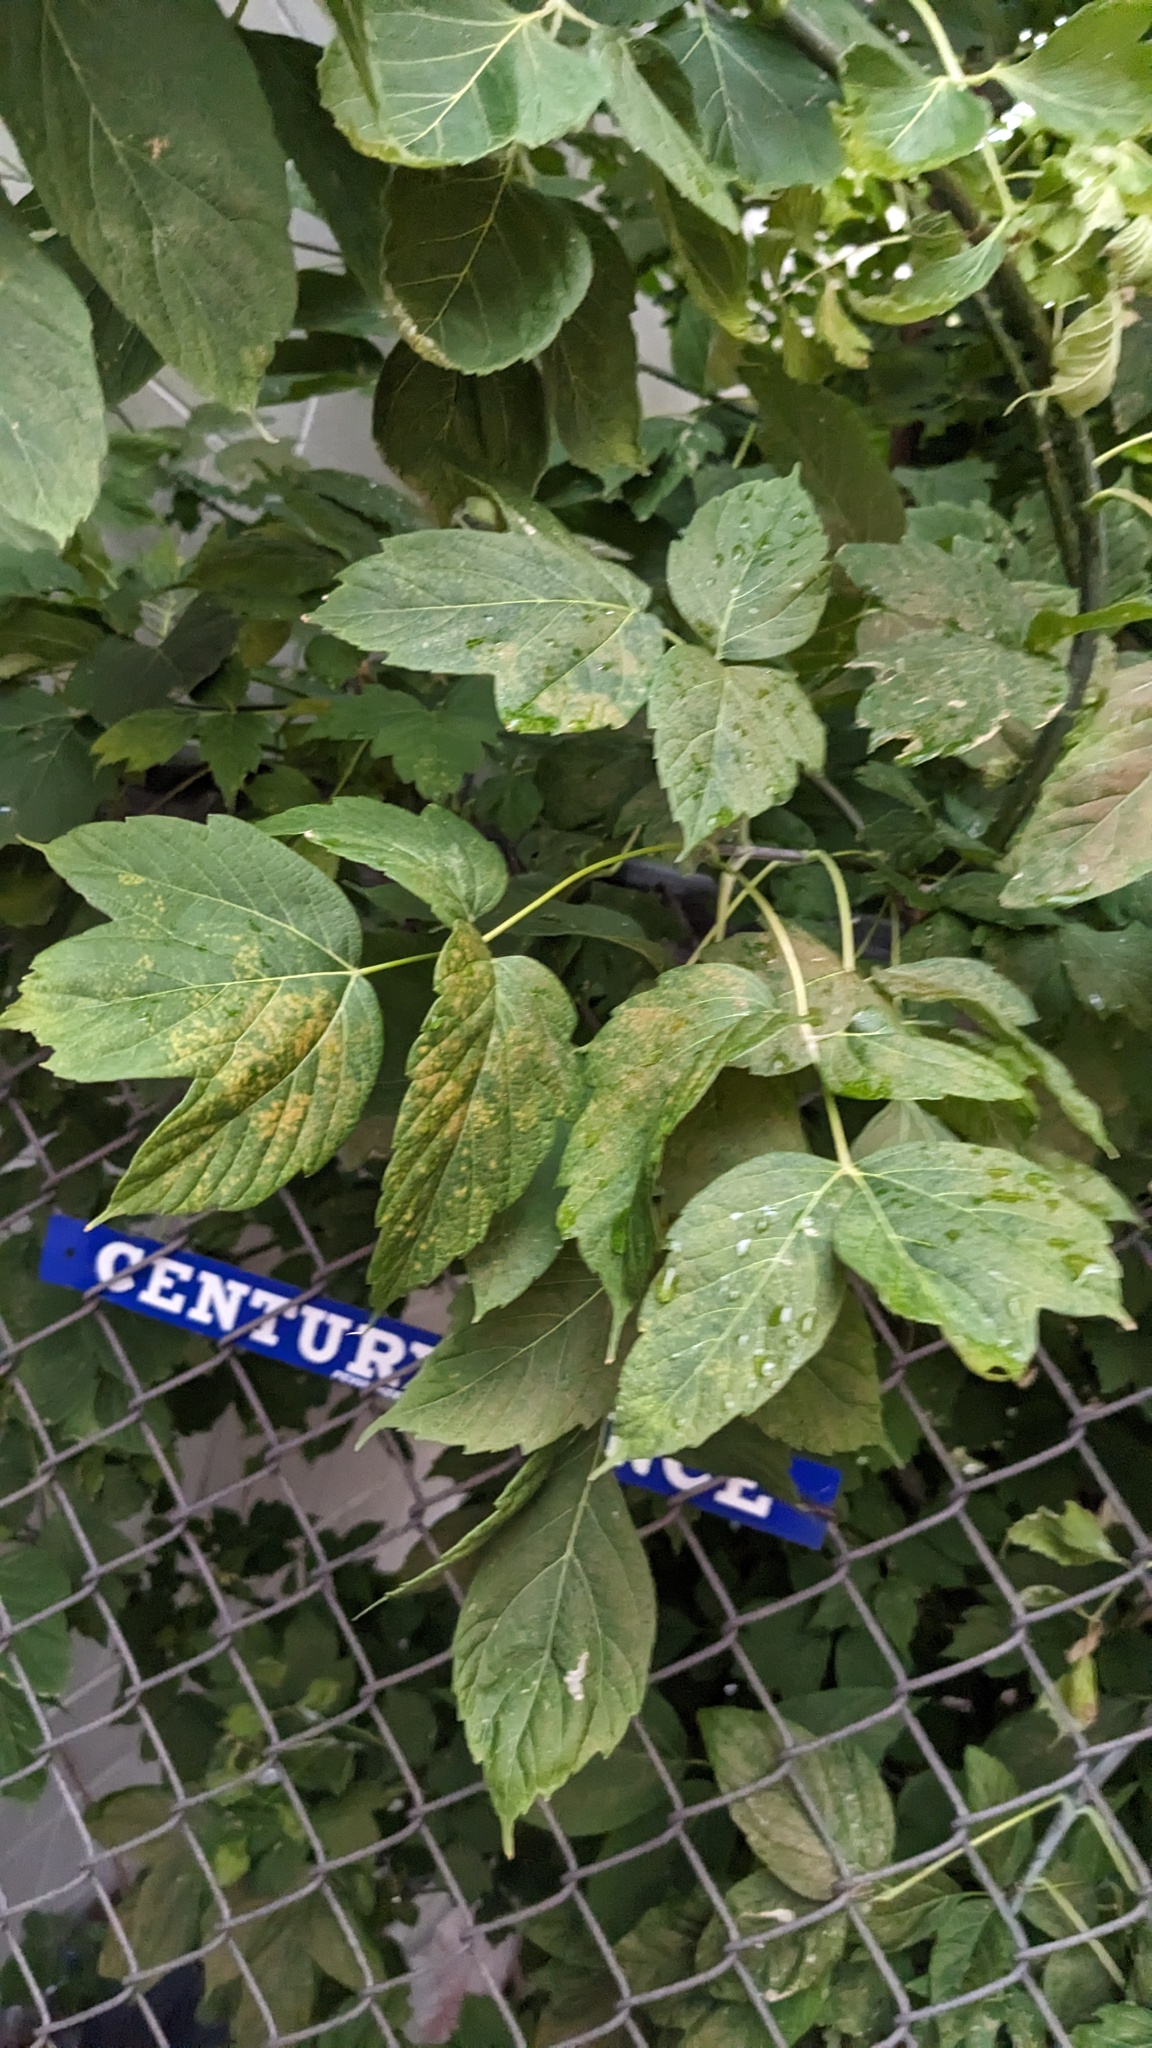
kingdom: Plantae
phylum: Tracheophyta
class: Magnoliopsida
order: Sapindales
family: Sapindaceae
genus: Acer
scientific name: Acer negundo
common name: Ashleaf maple
